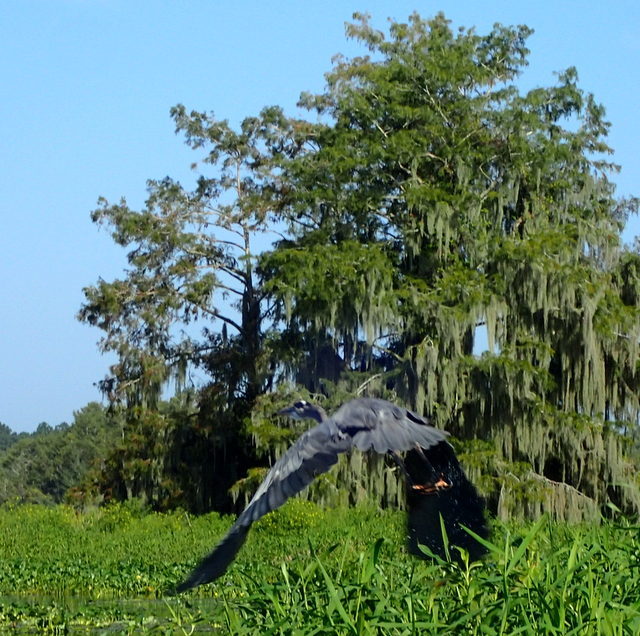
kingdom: Animalia
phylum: Chordata
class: Aves
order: Pelecaniformes
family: Ardeidae
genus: Ardea
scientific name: Ardea herodias
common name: Great blue heron
